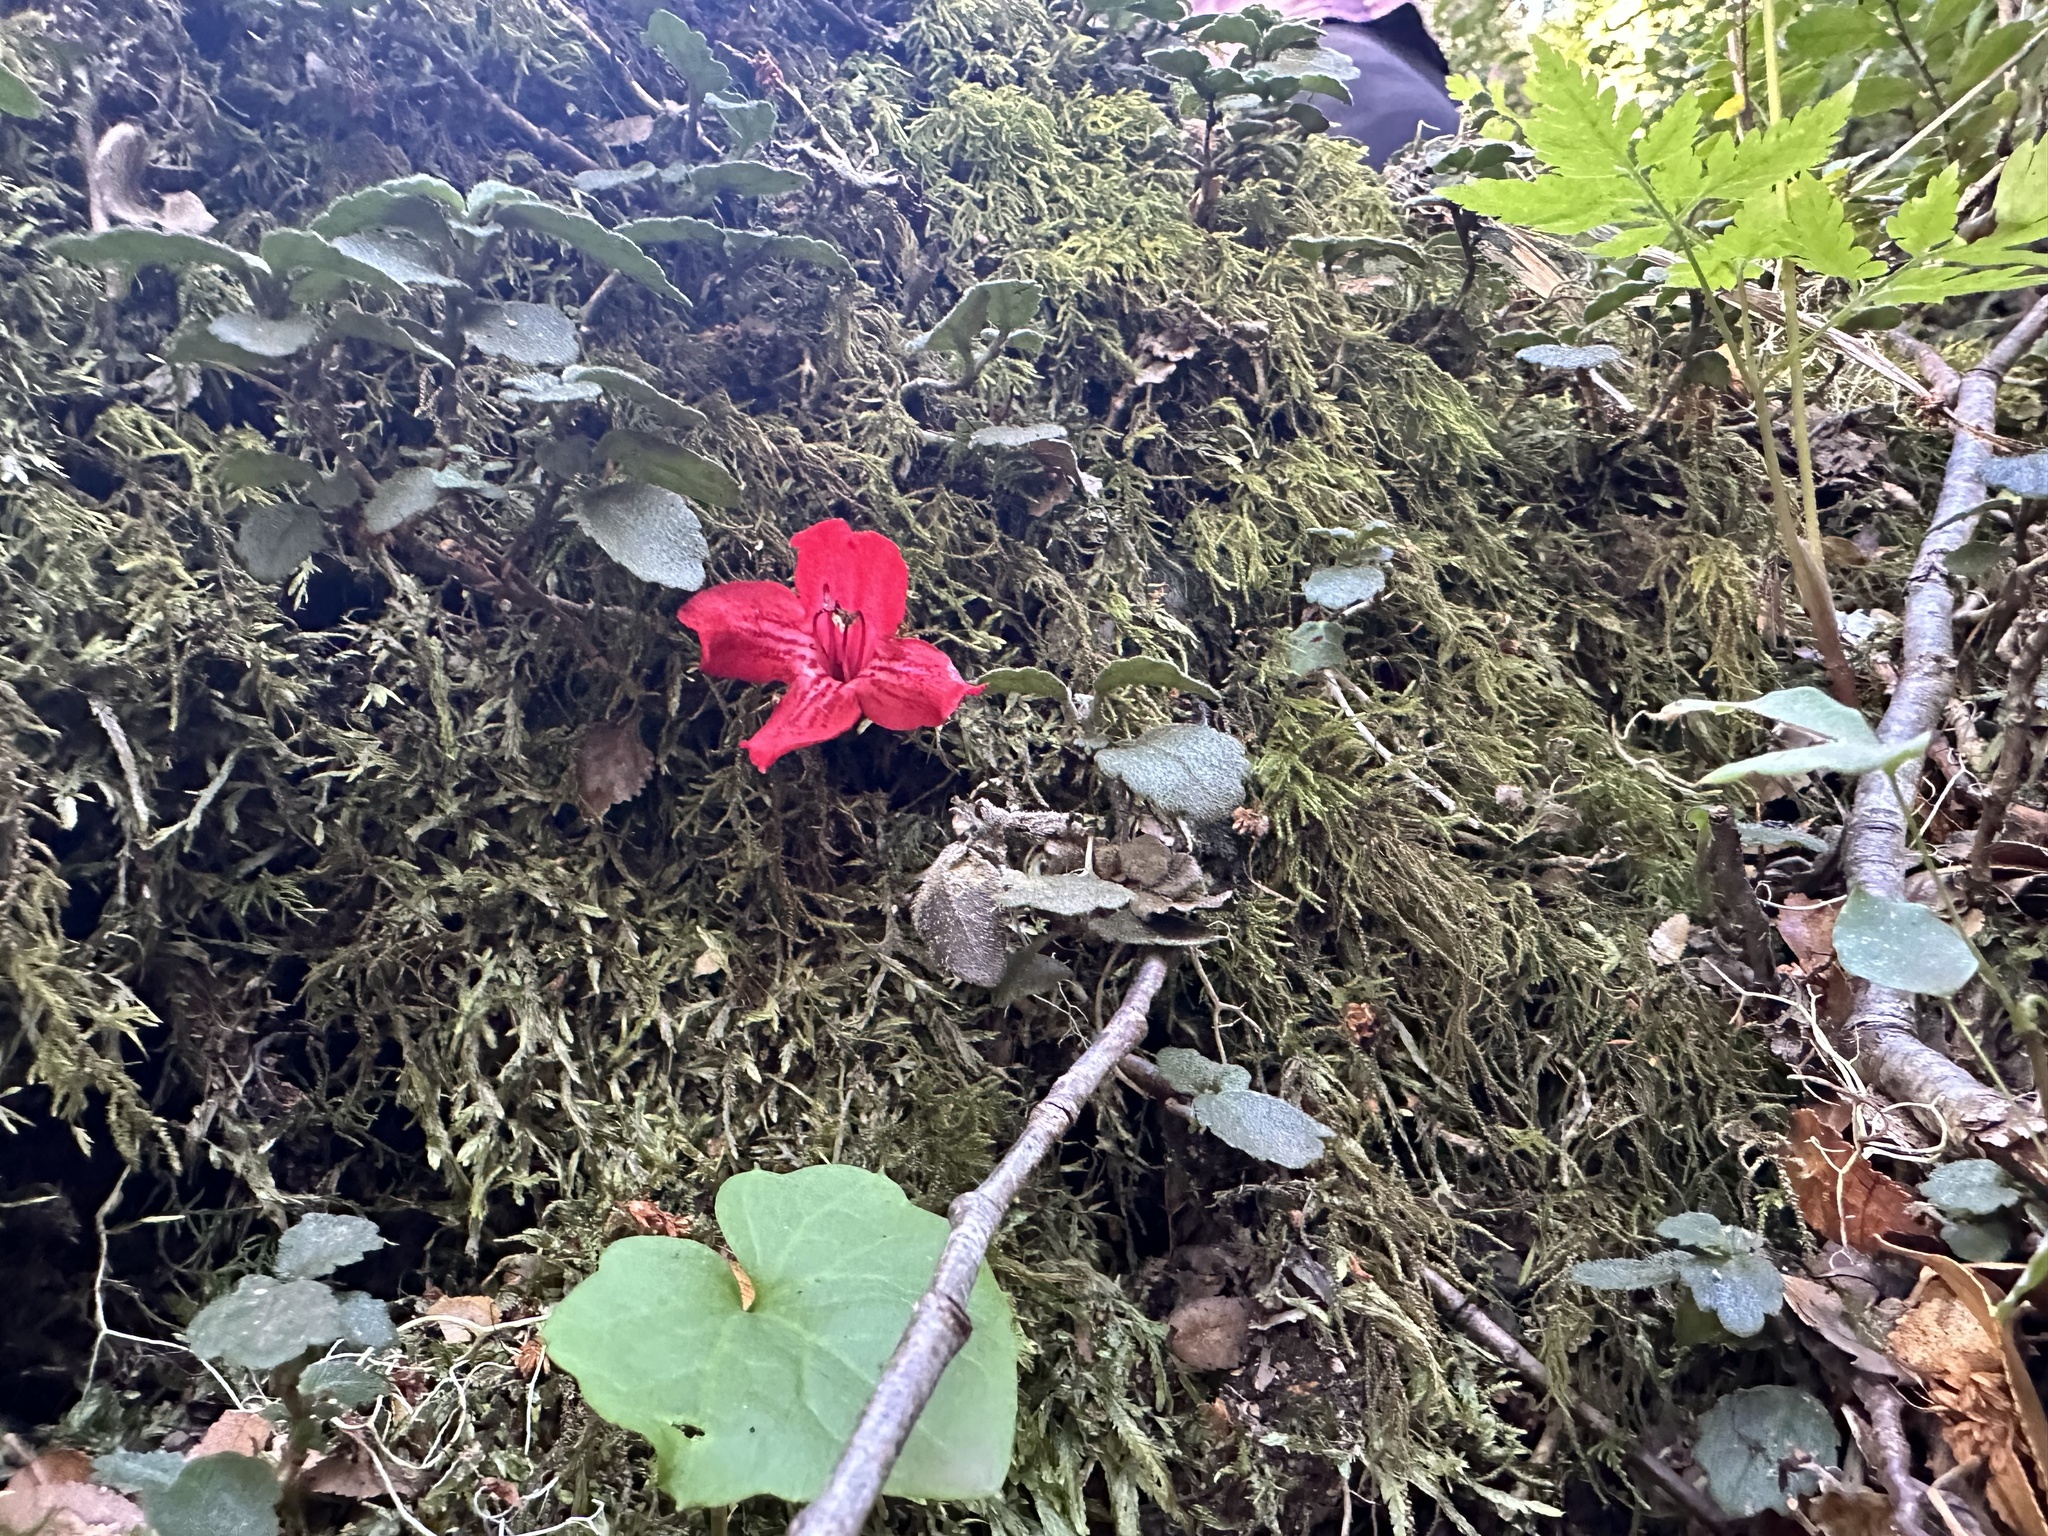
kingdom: Plantae
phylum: Tracheophyta
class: Magnoliopsida
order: Lamiales
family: Gesneriaceae
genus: Asteranthera
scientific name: Asteranthera ovata
